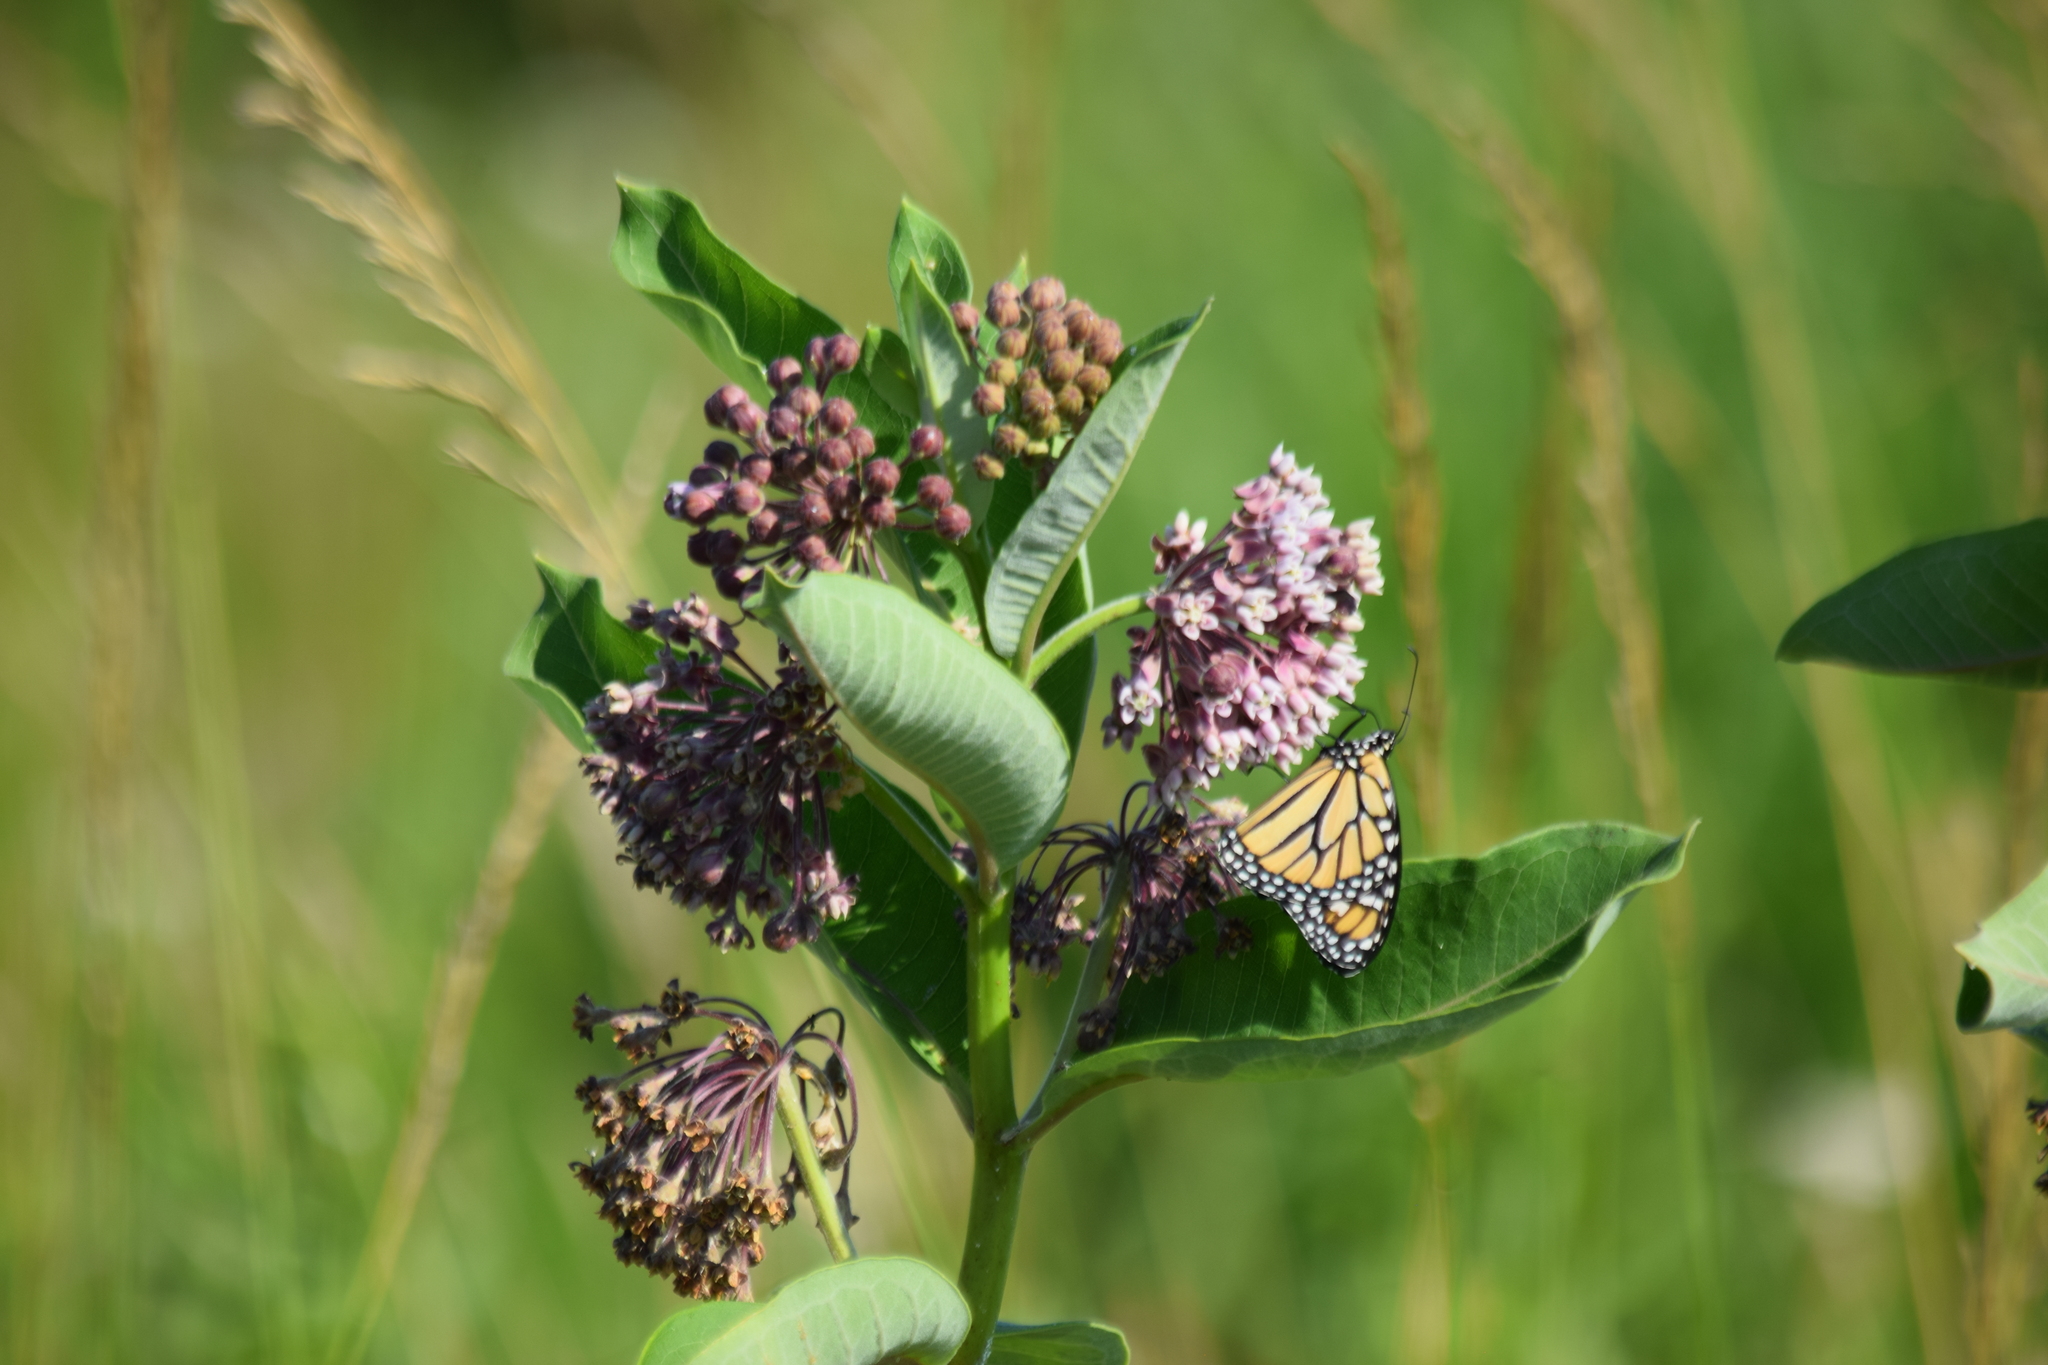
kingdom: Animalia
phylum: Arthropoda
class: Insecta
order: Lepidoptera
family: Nymphalidae
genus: Danaus
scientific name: Danaus plexippus
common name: Monarch
